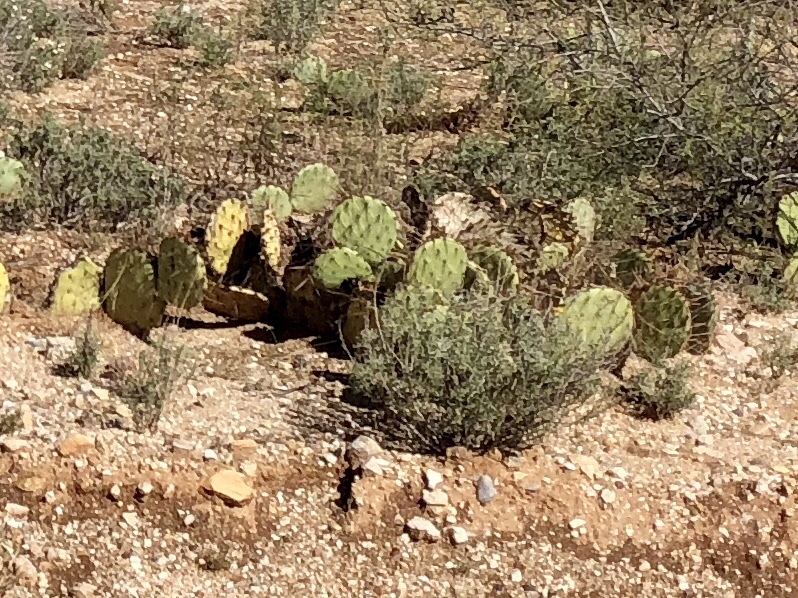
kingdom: Plantae
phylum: Tracheophyta
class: Magnoliopsida
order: Caryophyllales
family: Cactaceae
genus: Opuntia
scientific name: Opuntia phaeacantha
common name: New mexico prickly-pear
